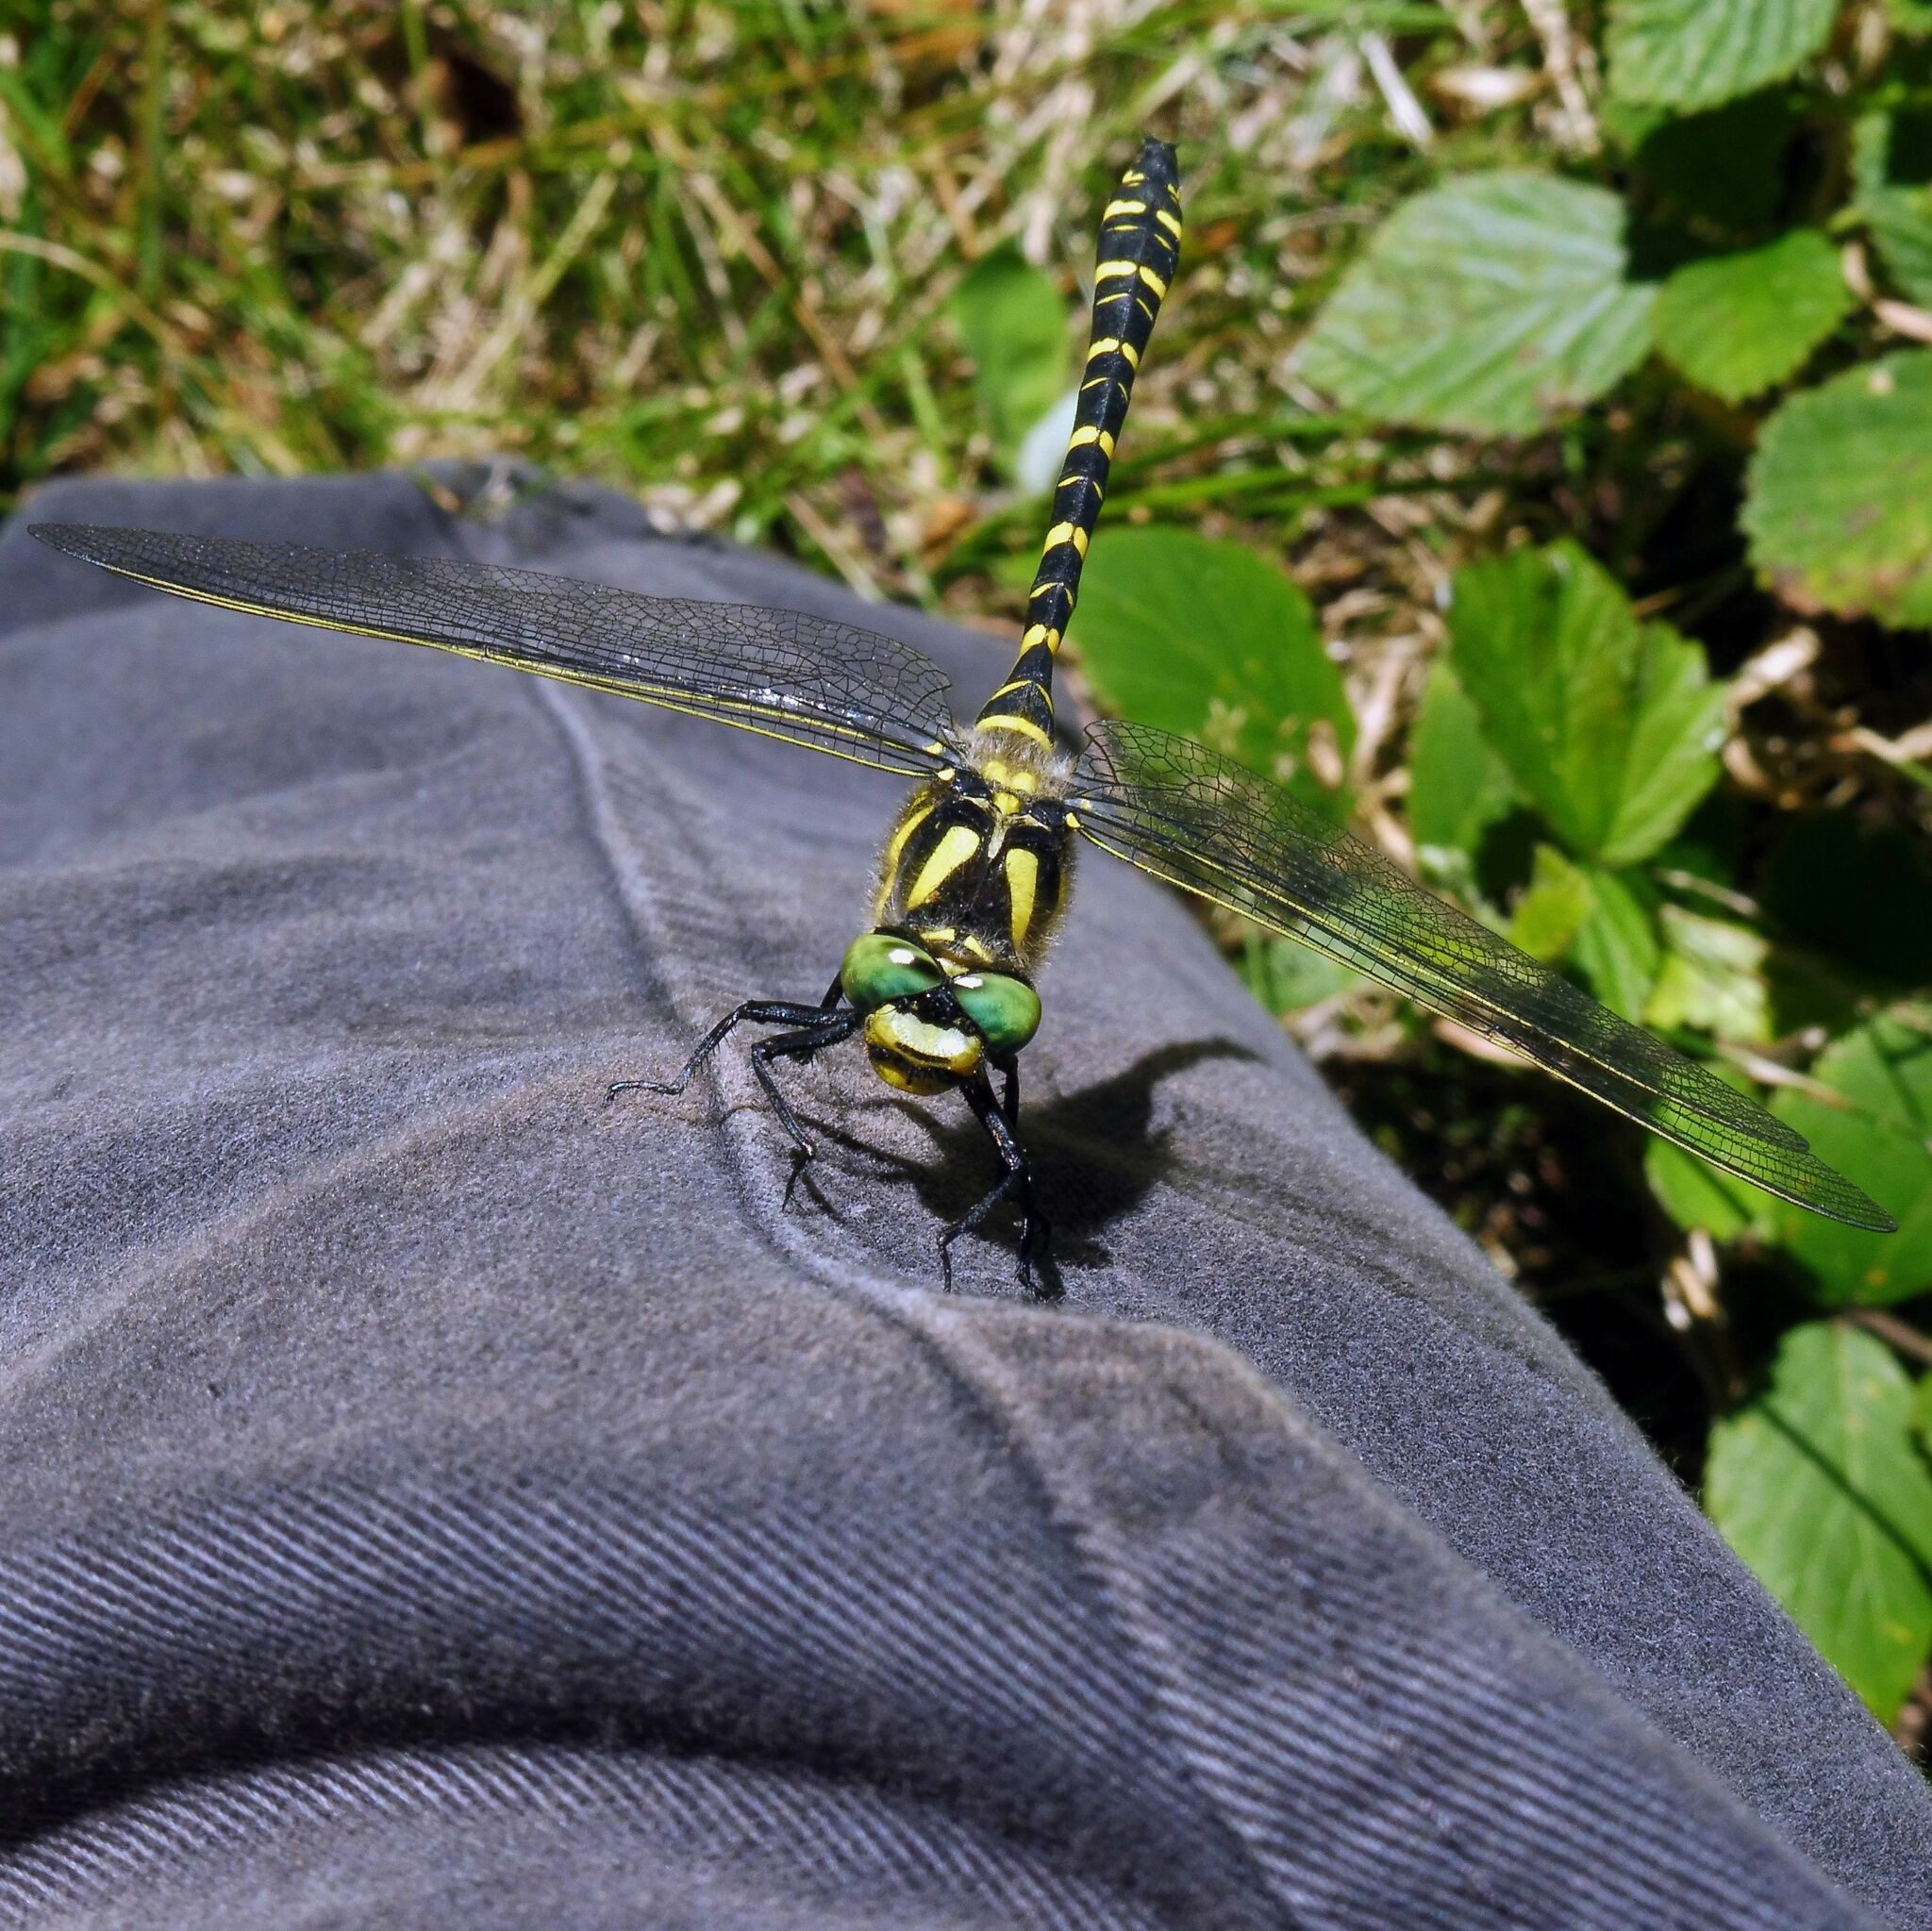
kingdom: Animalia
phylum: Arthropoda
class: Insecta
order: Odonata
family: Cordulegastridae
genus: Cordulegaster
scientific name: Cordulegaster boltonii
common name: Golden-ringed dragonfly
